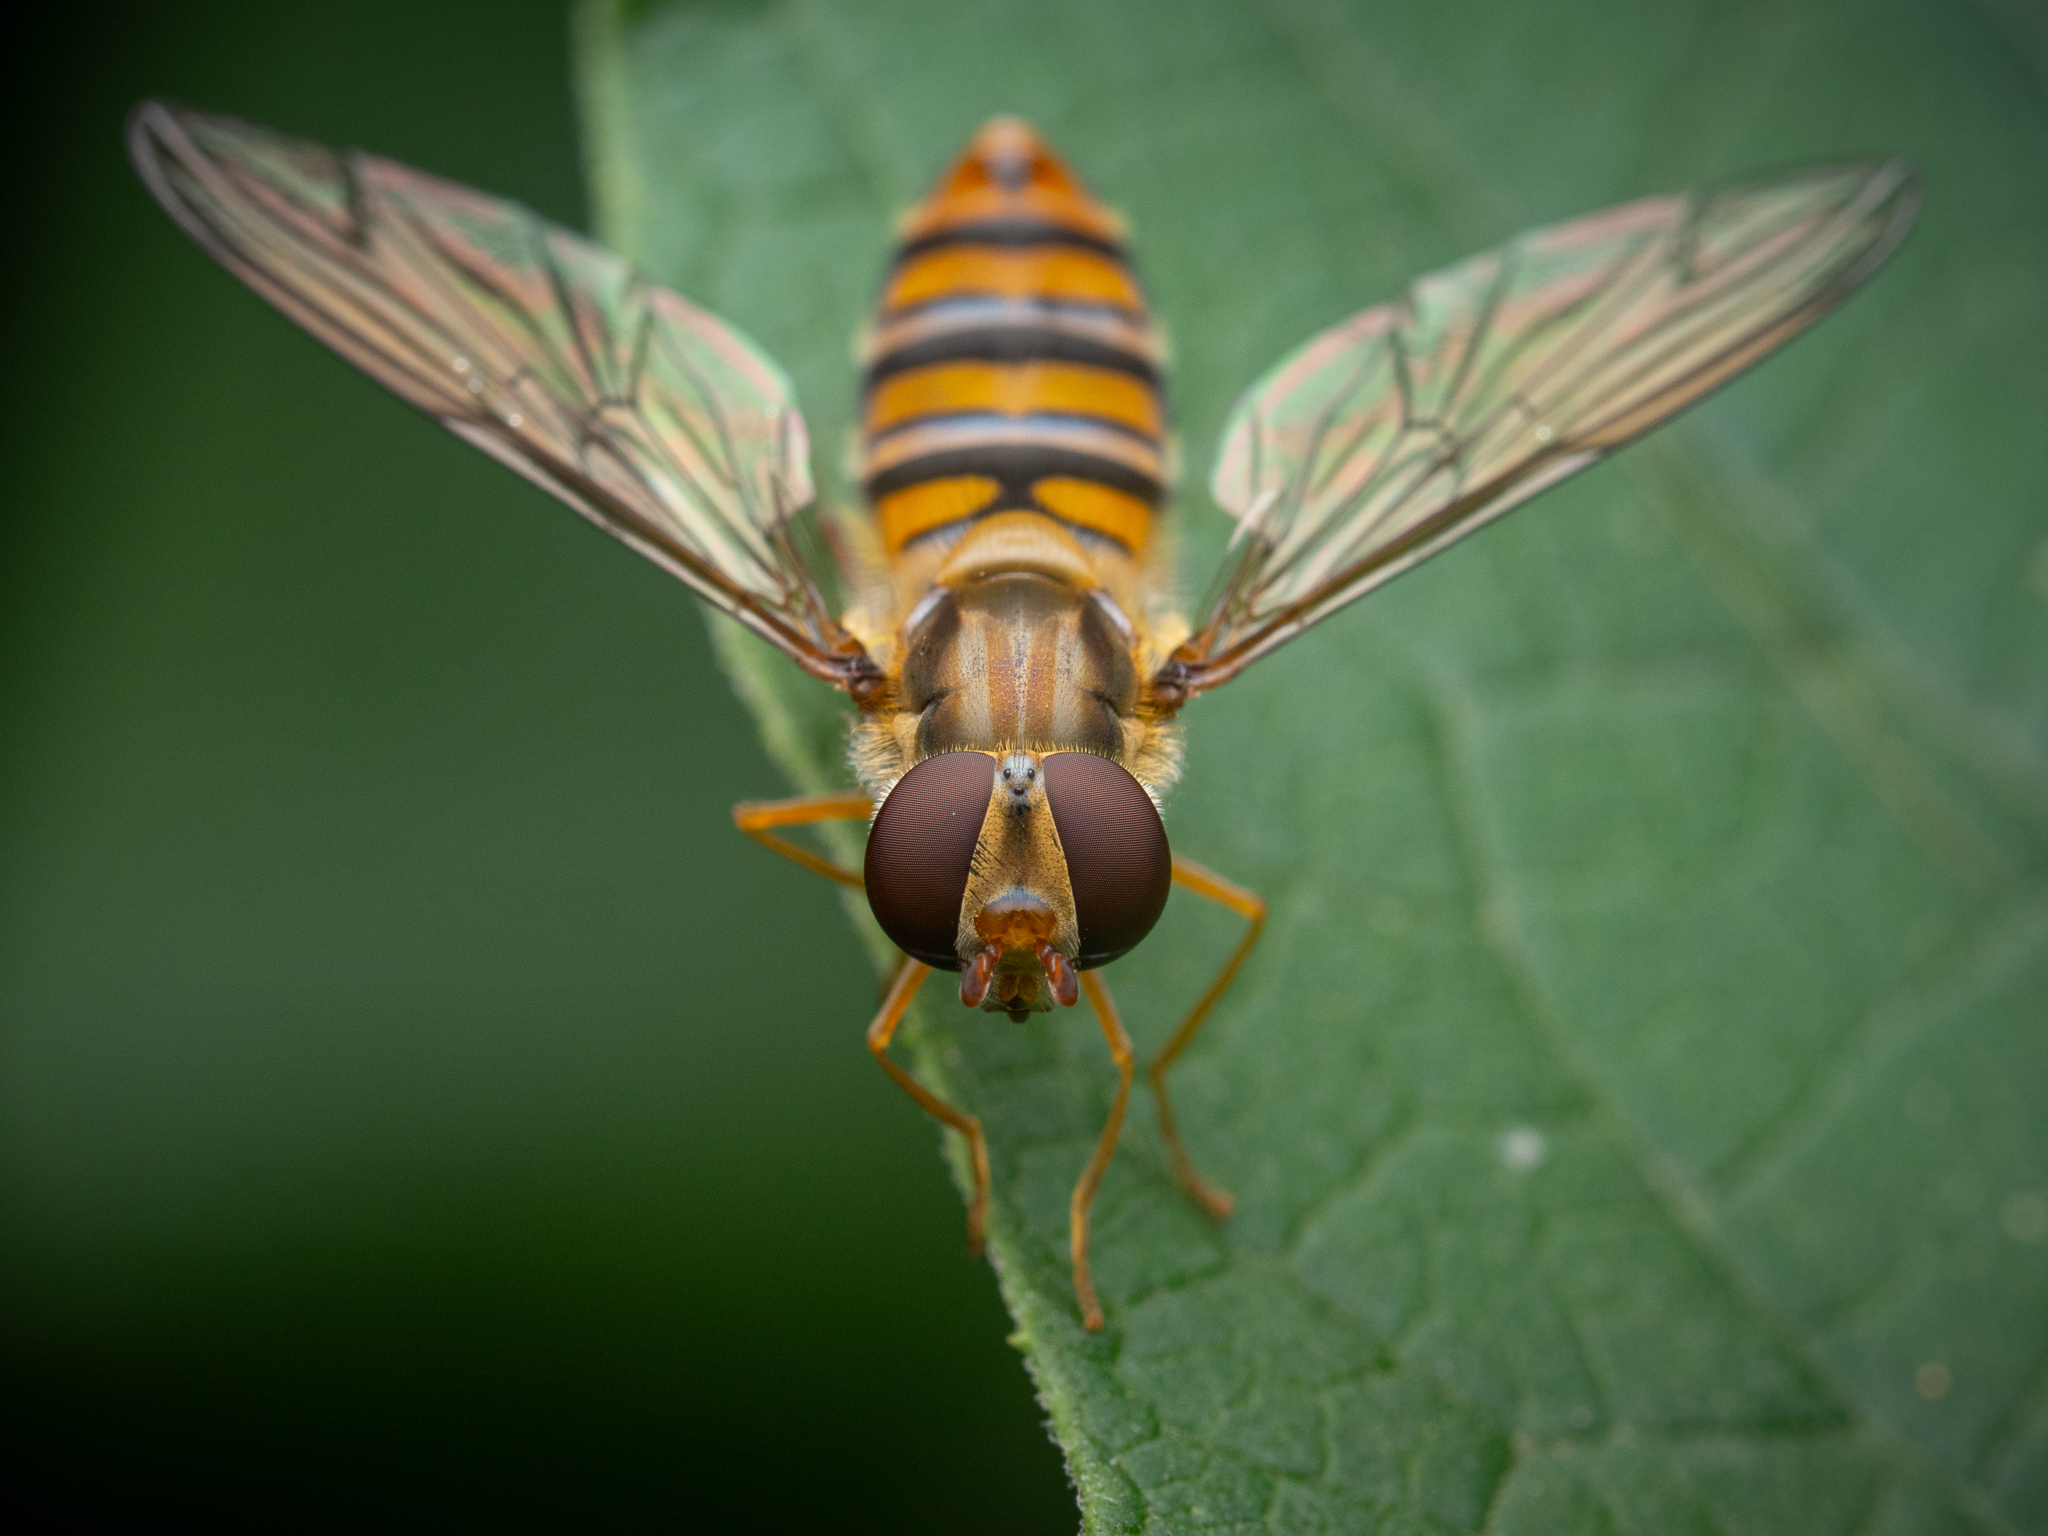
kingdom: Animalia
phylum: Arthropoda
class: Insecta
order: Diptera
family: Syrphidae
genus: Episyrphus
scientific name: Episyrphus balteatus
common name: Marmalade hoverfly
